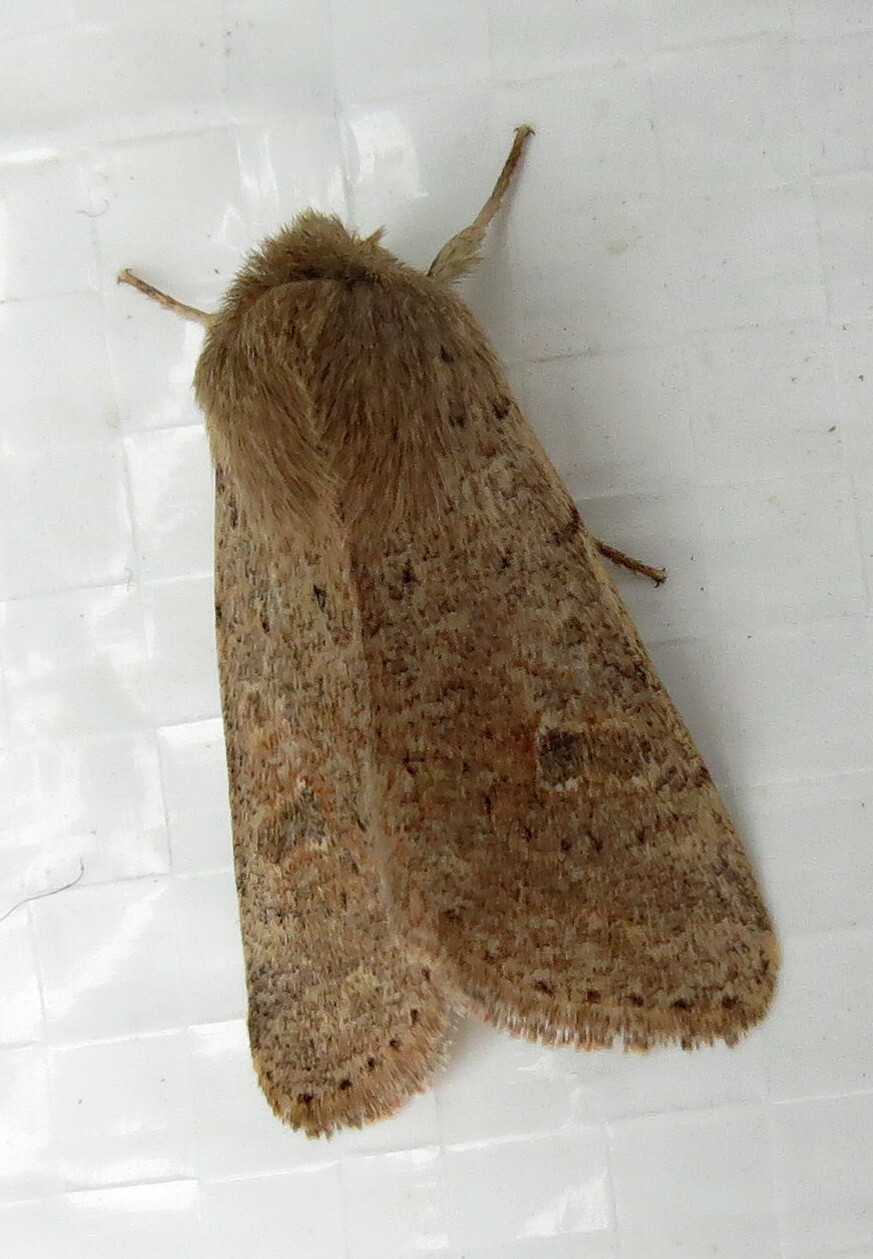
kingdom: Animalia
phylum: Arthropoda
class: Insecta
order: Lepidoptera
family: Noctuidae
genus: Orthosia
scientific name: Orthosia cruda
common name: Small quaker
